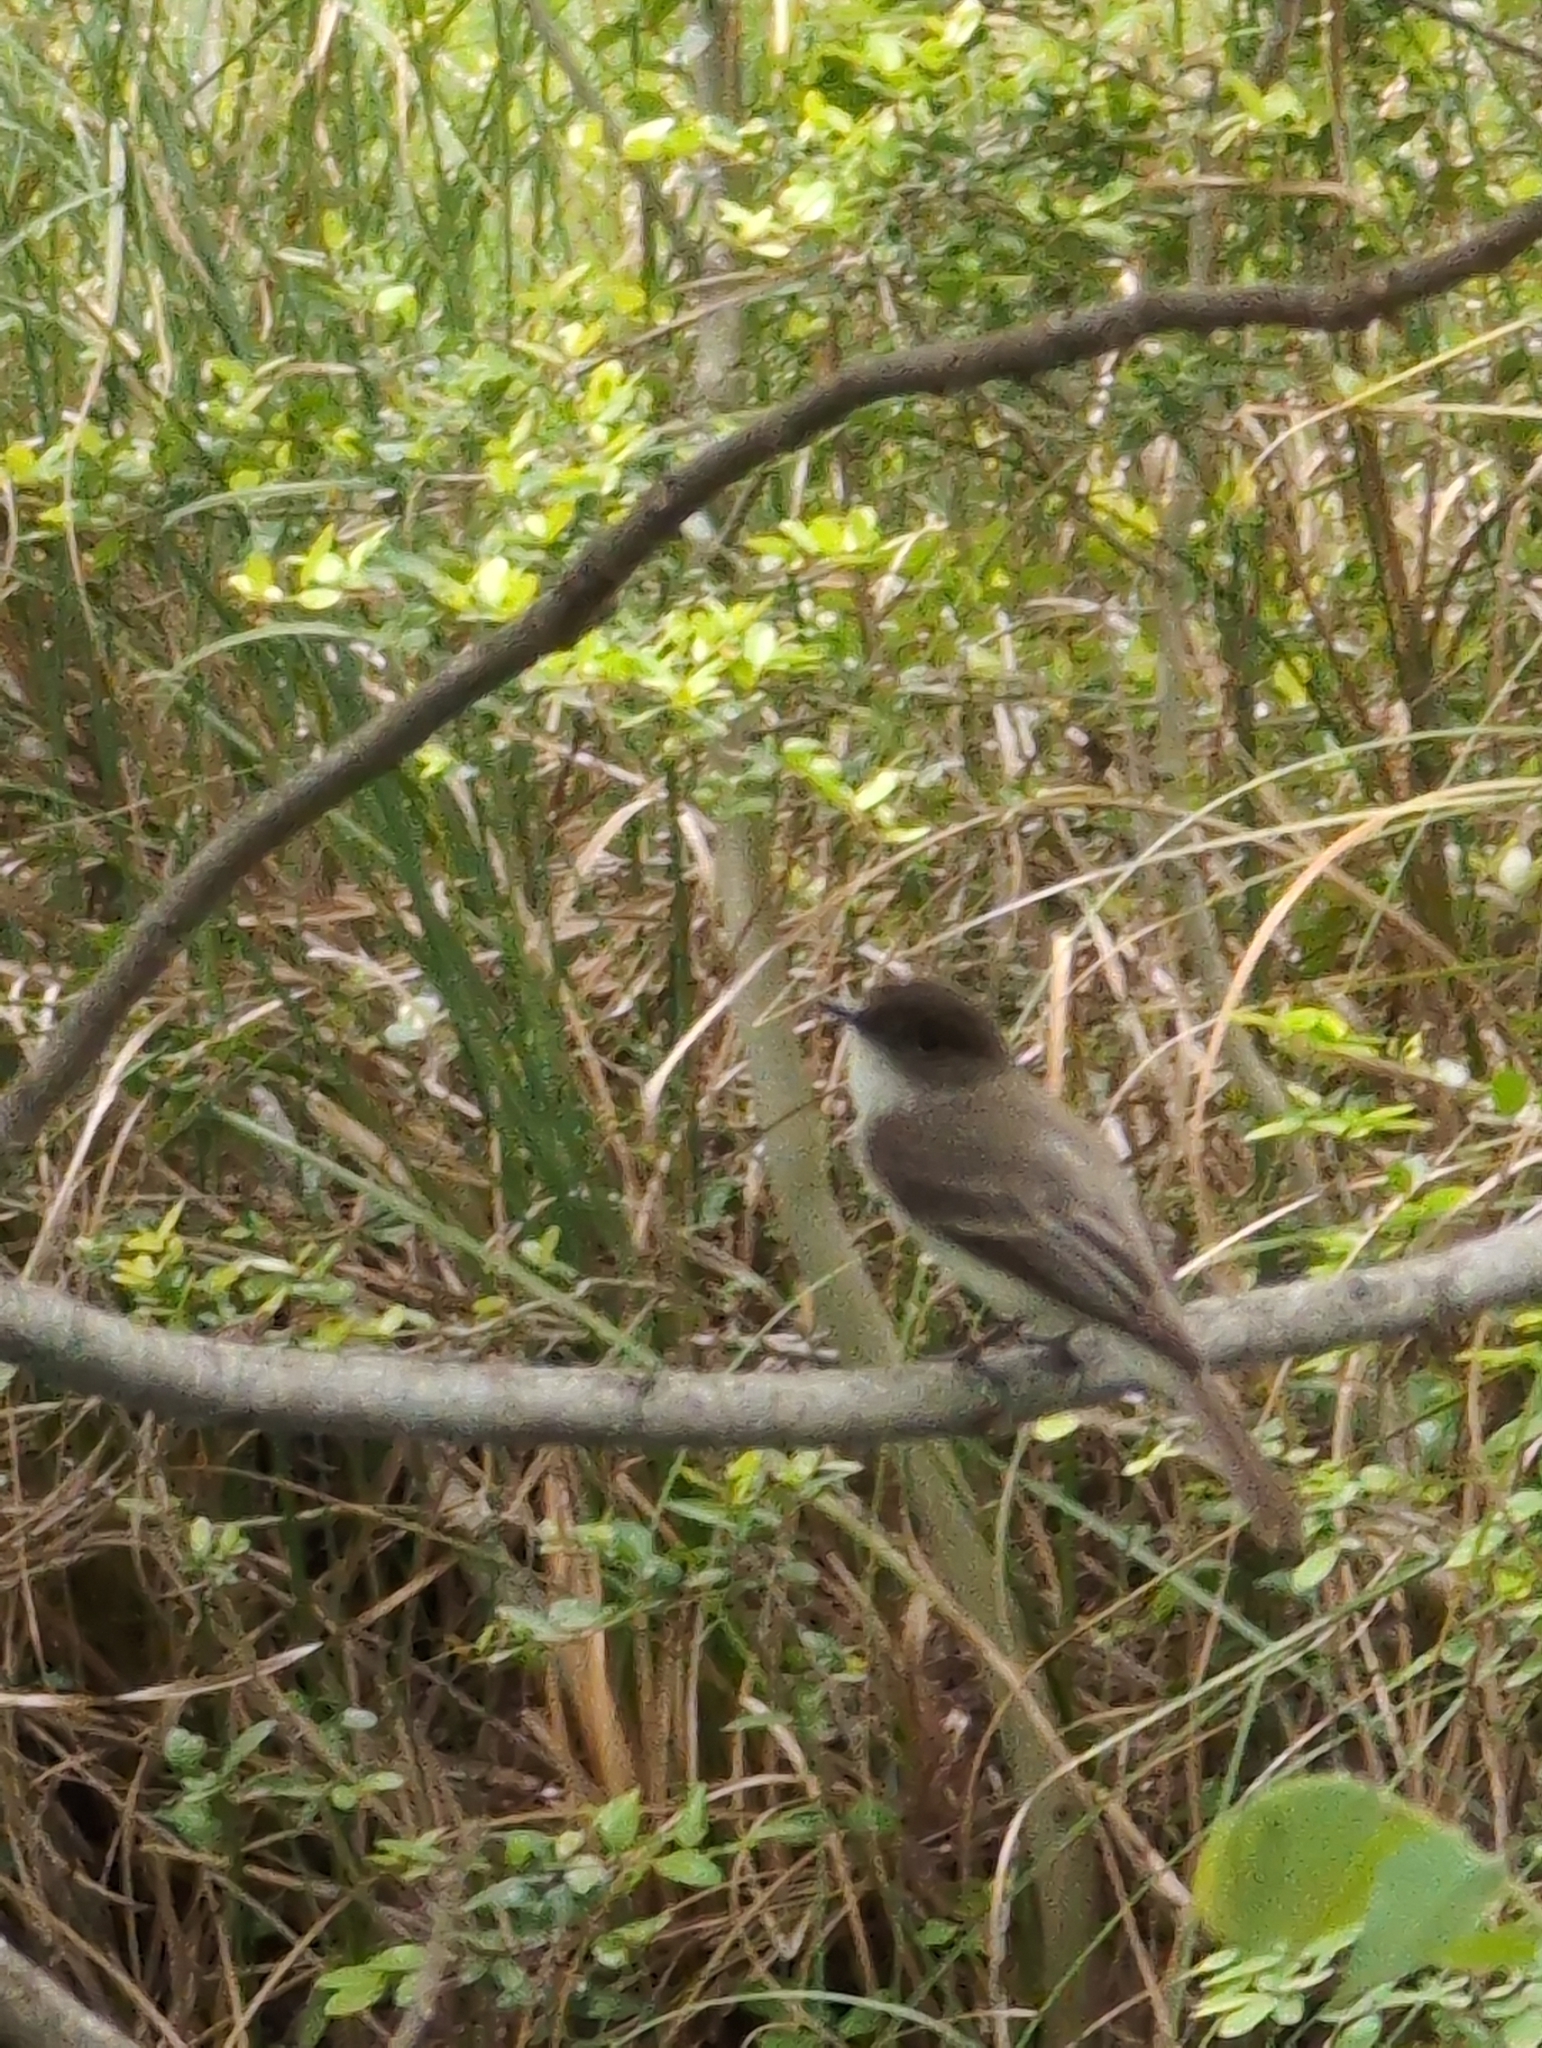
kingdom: Animalia
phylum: Chordata
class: Aves
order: Passeriformes
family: Tyrannidae
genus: Sayornis
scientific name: Sayornis phoebe
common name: Eastern phoebe
